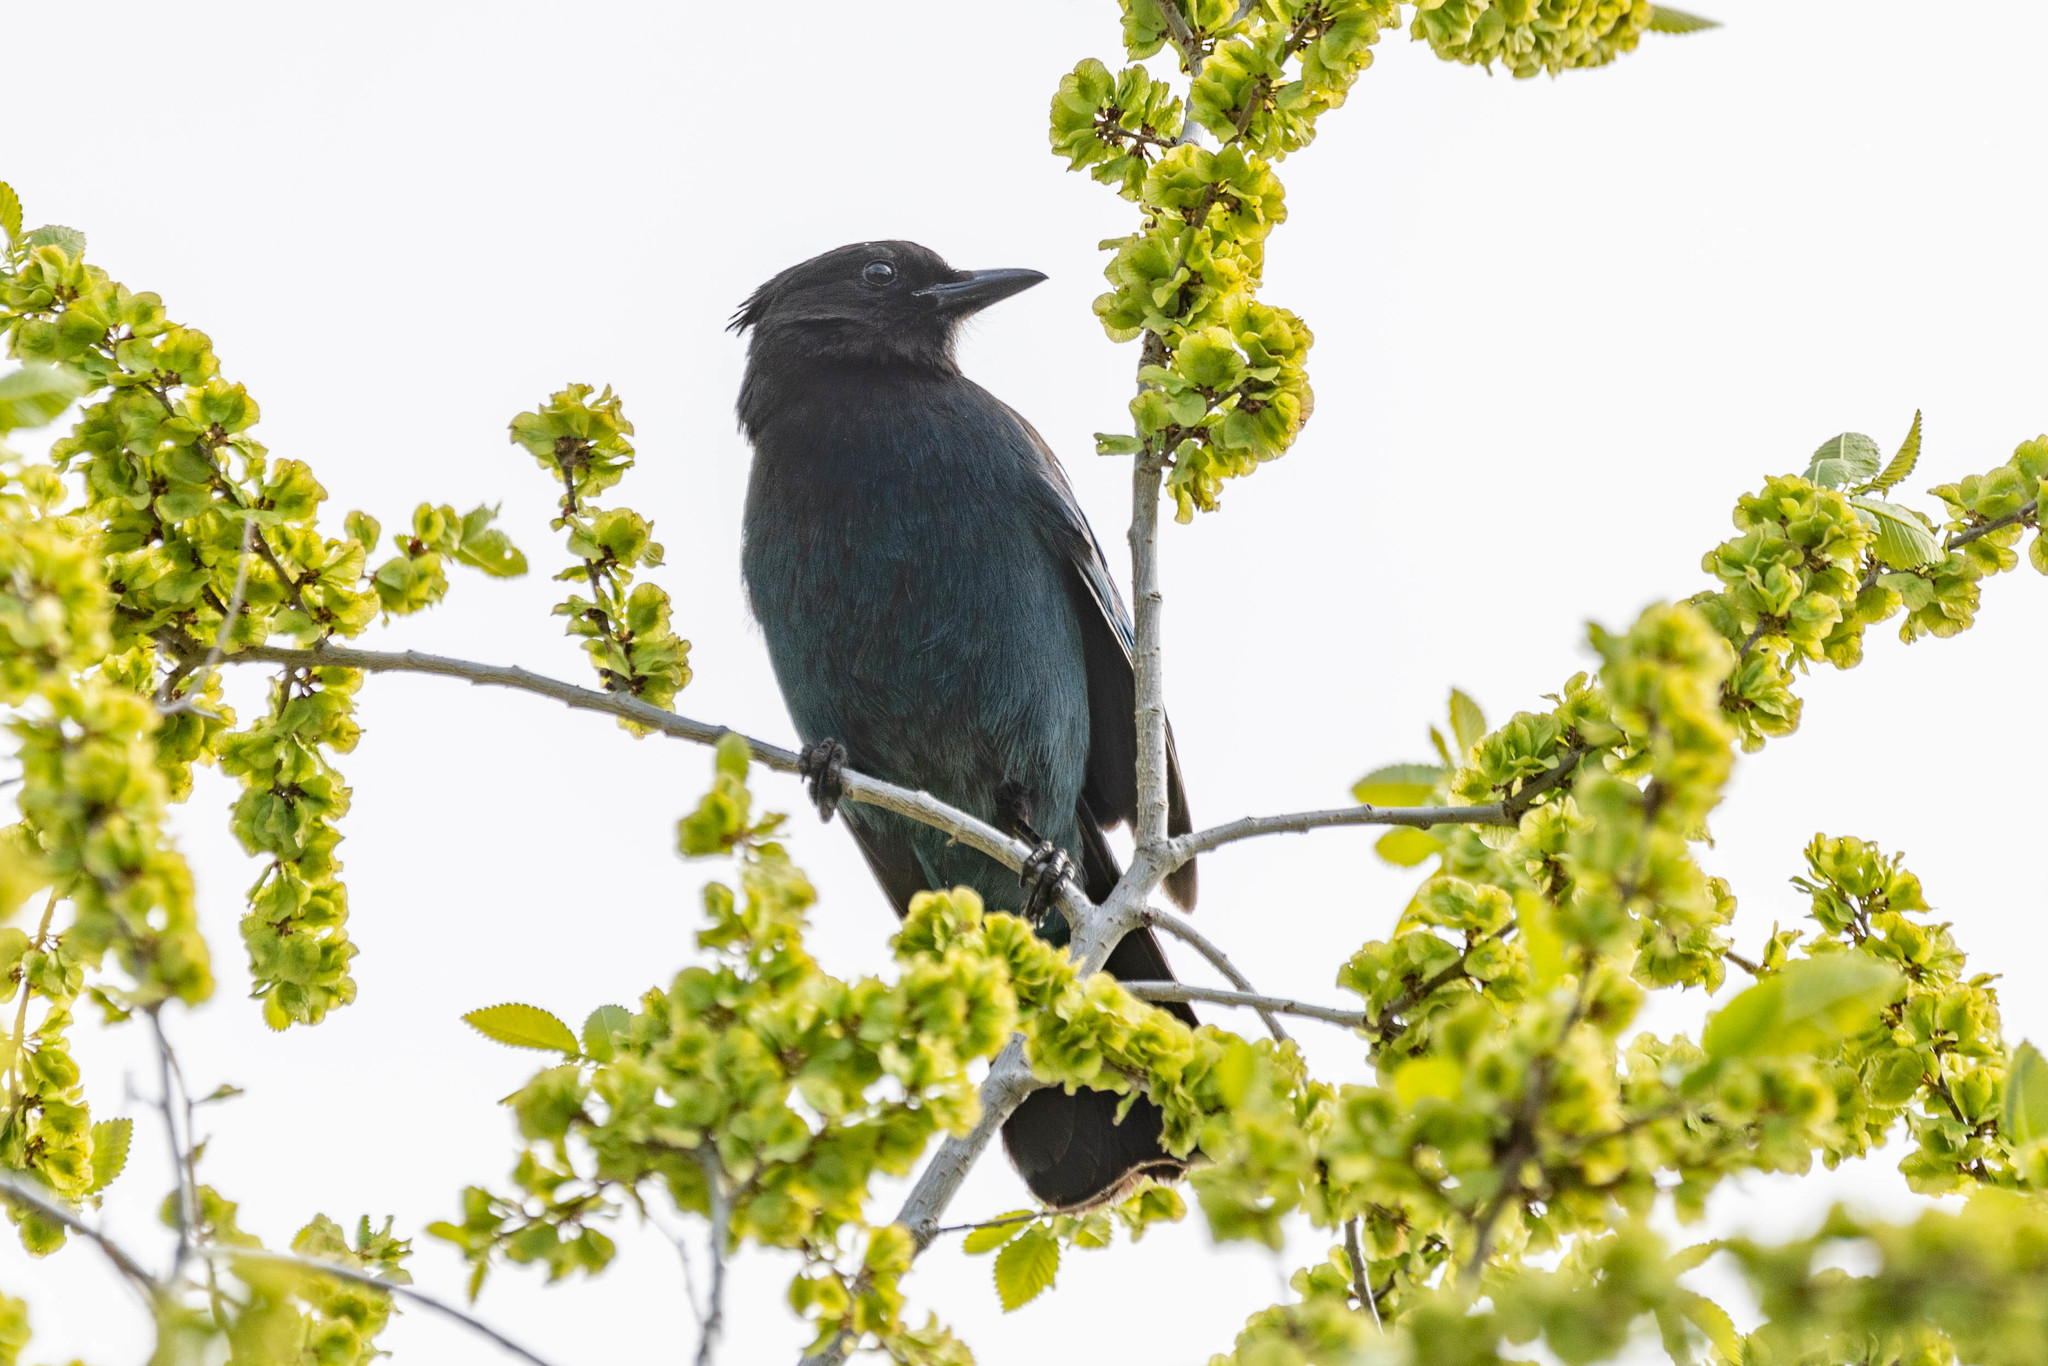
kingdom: Animalia
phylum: Chordata
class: Aves
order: Passeriformes
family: Corvidae
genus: Cyanocitta
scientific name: Cyanocitta stelleri
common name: Steller's jay
